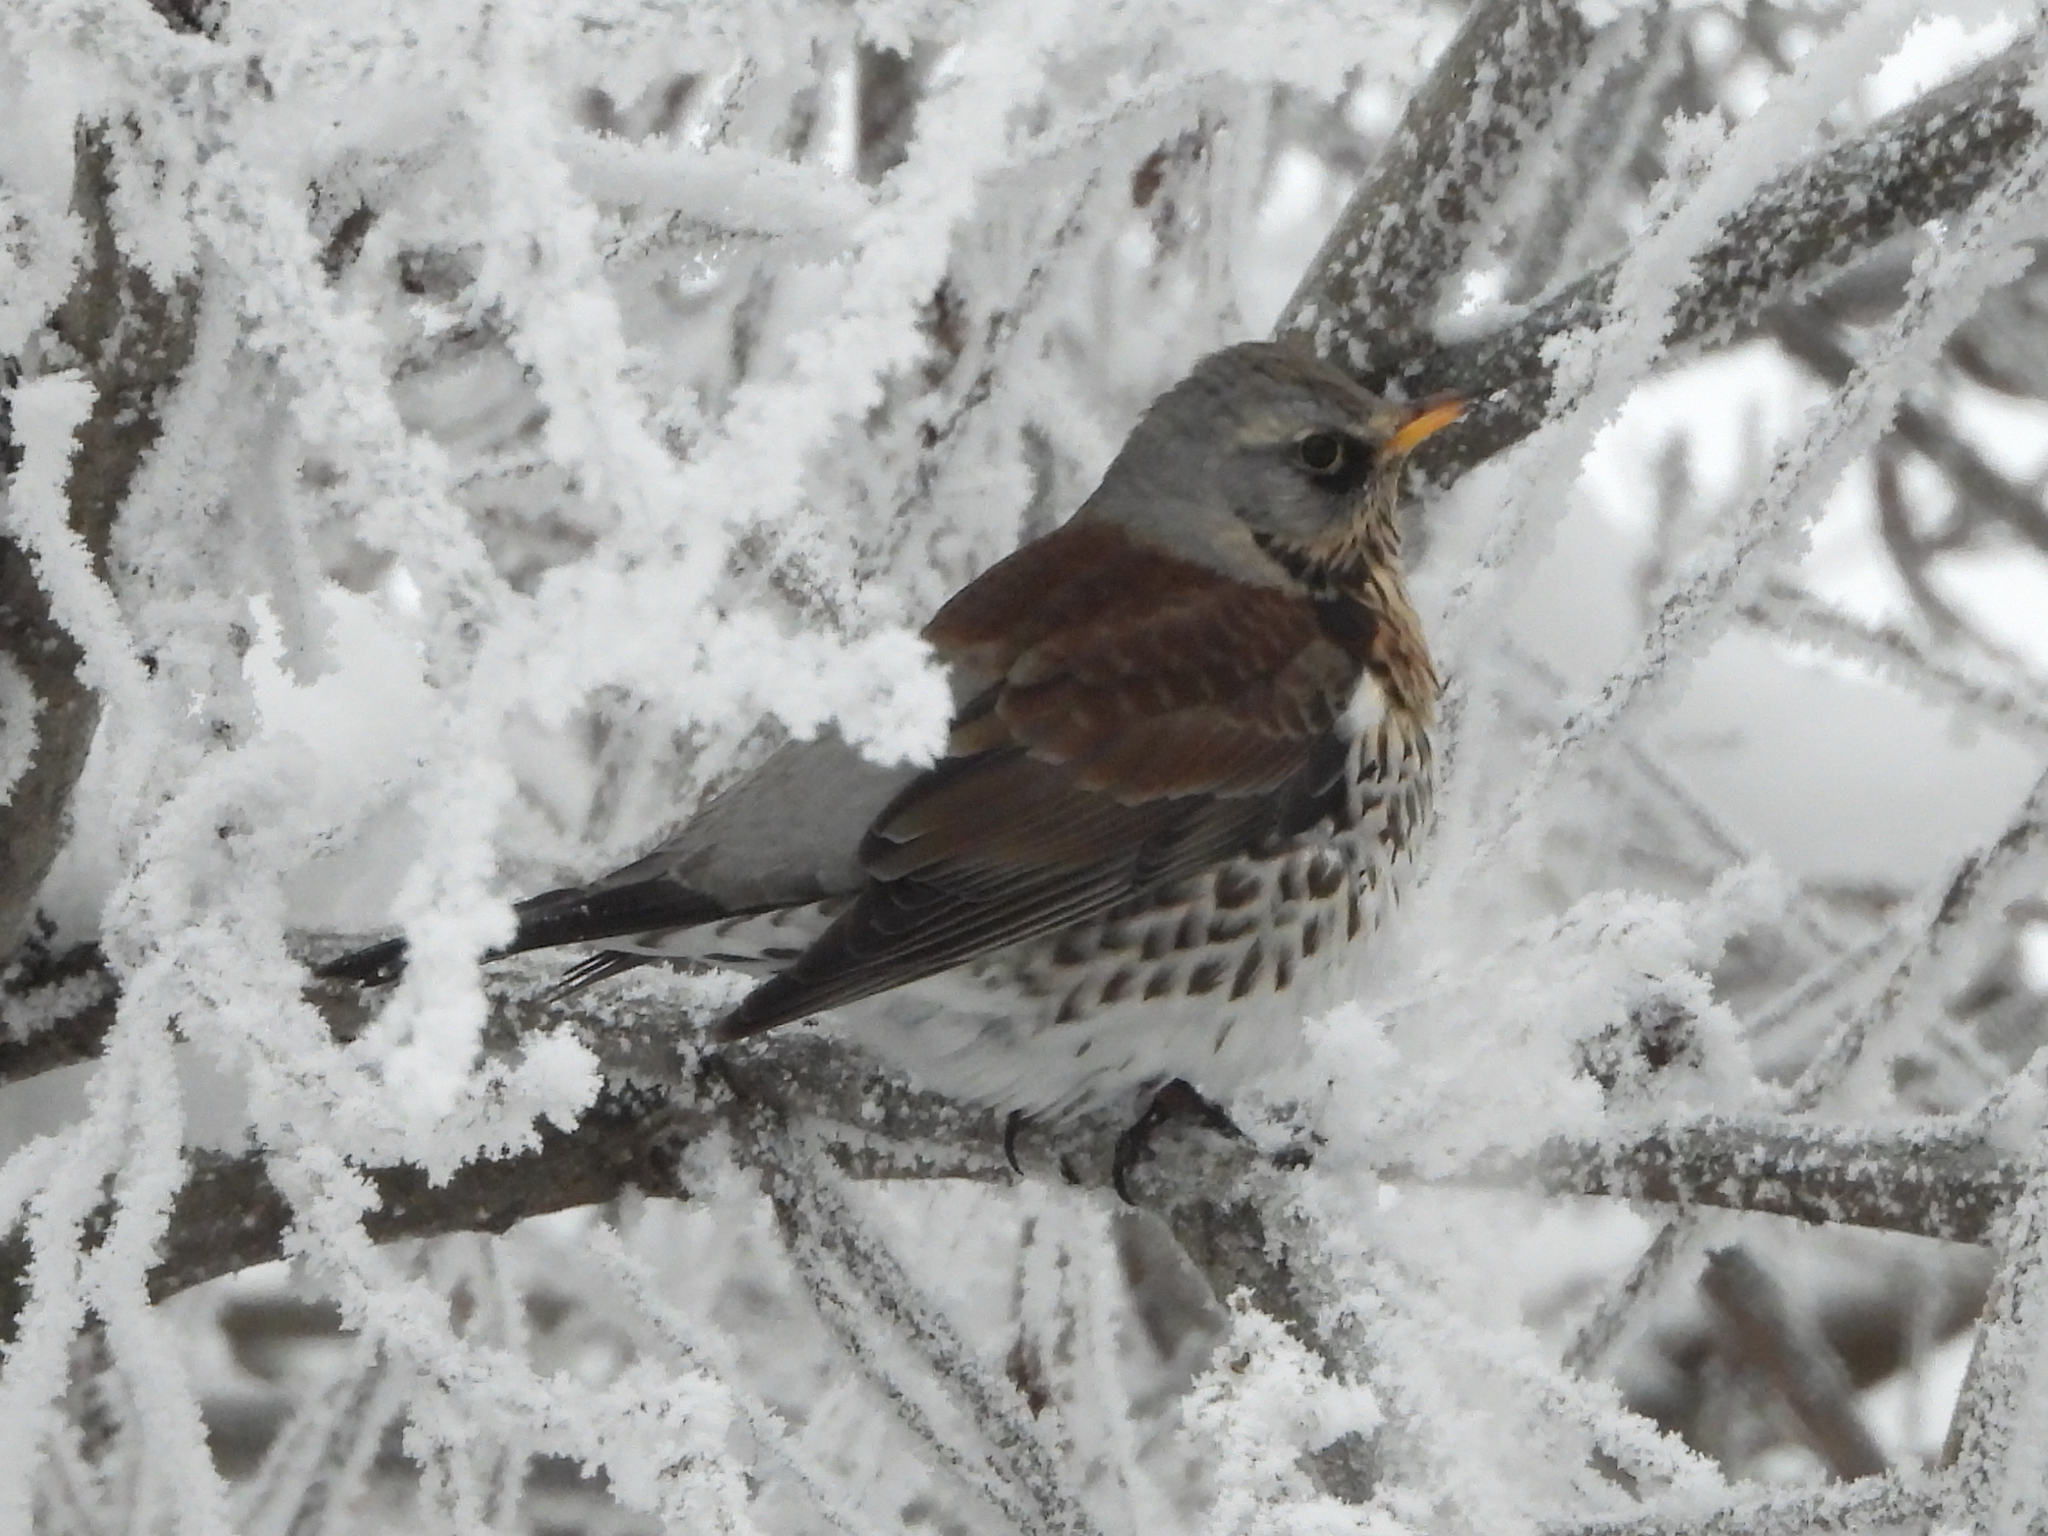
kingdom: Animalia
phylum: Chordata
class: Aves
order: Passeriformes
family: Turdidae
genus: Turdus
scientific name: Turdus pilaris
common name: Fieldfare
